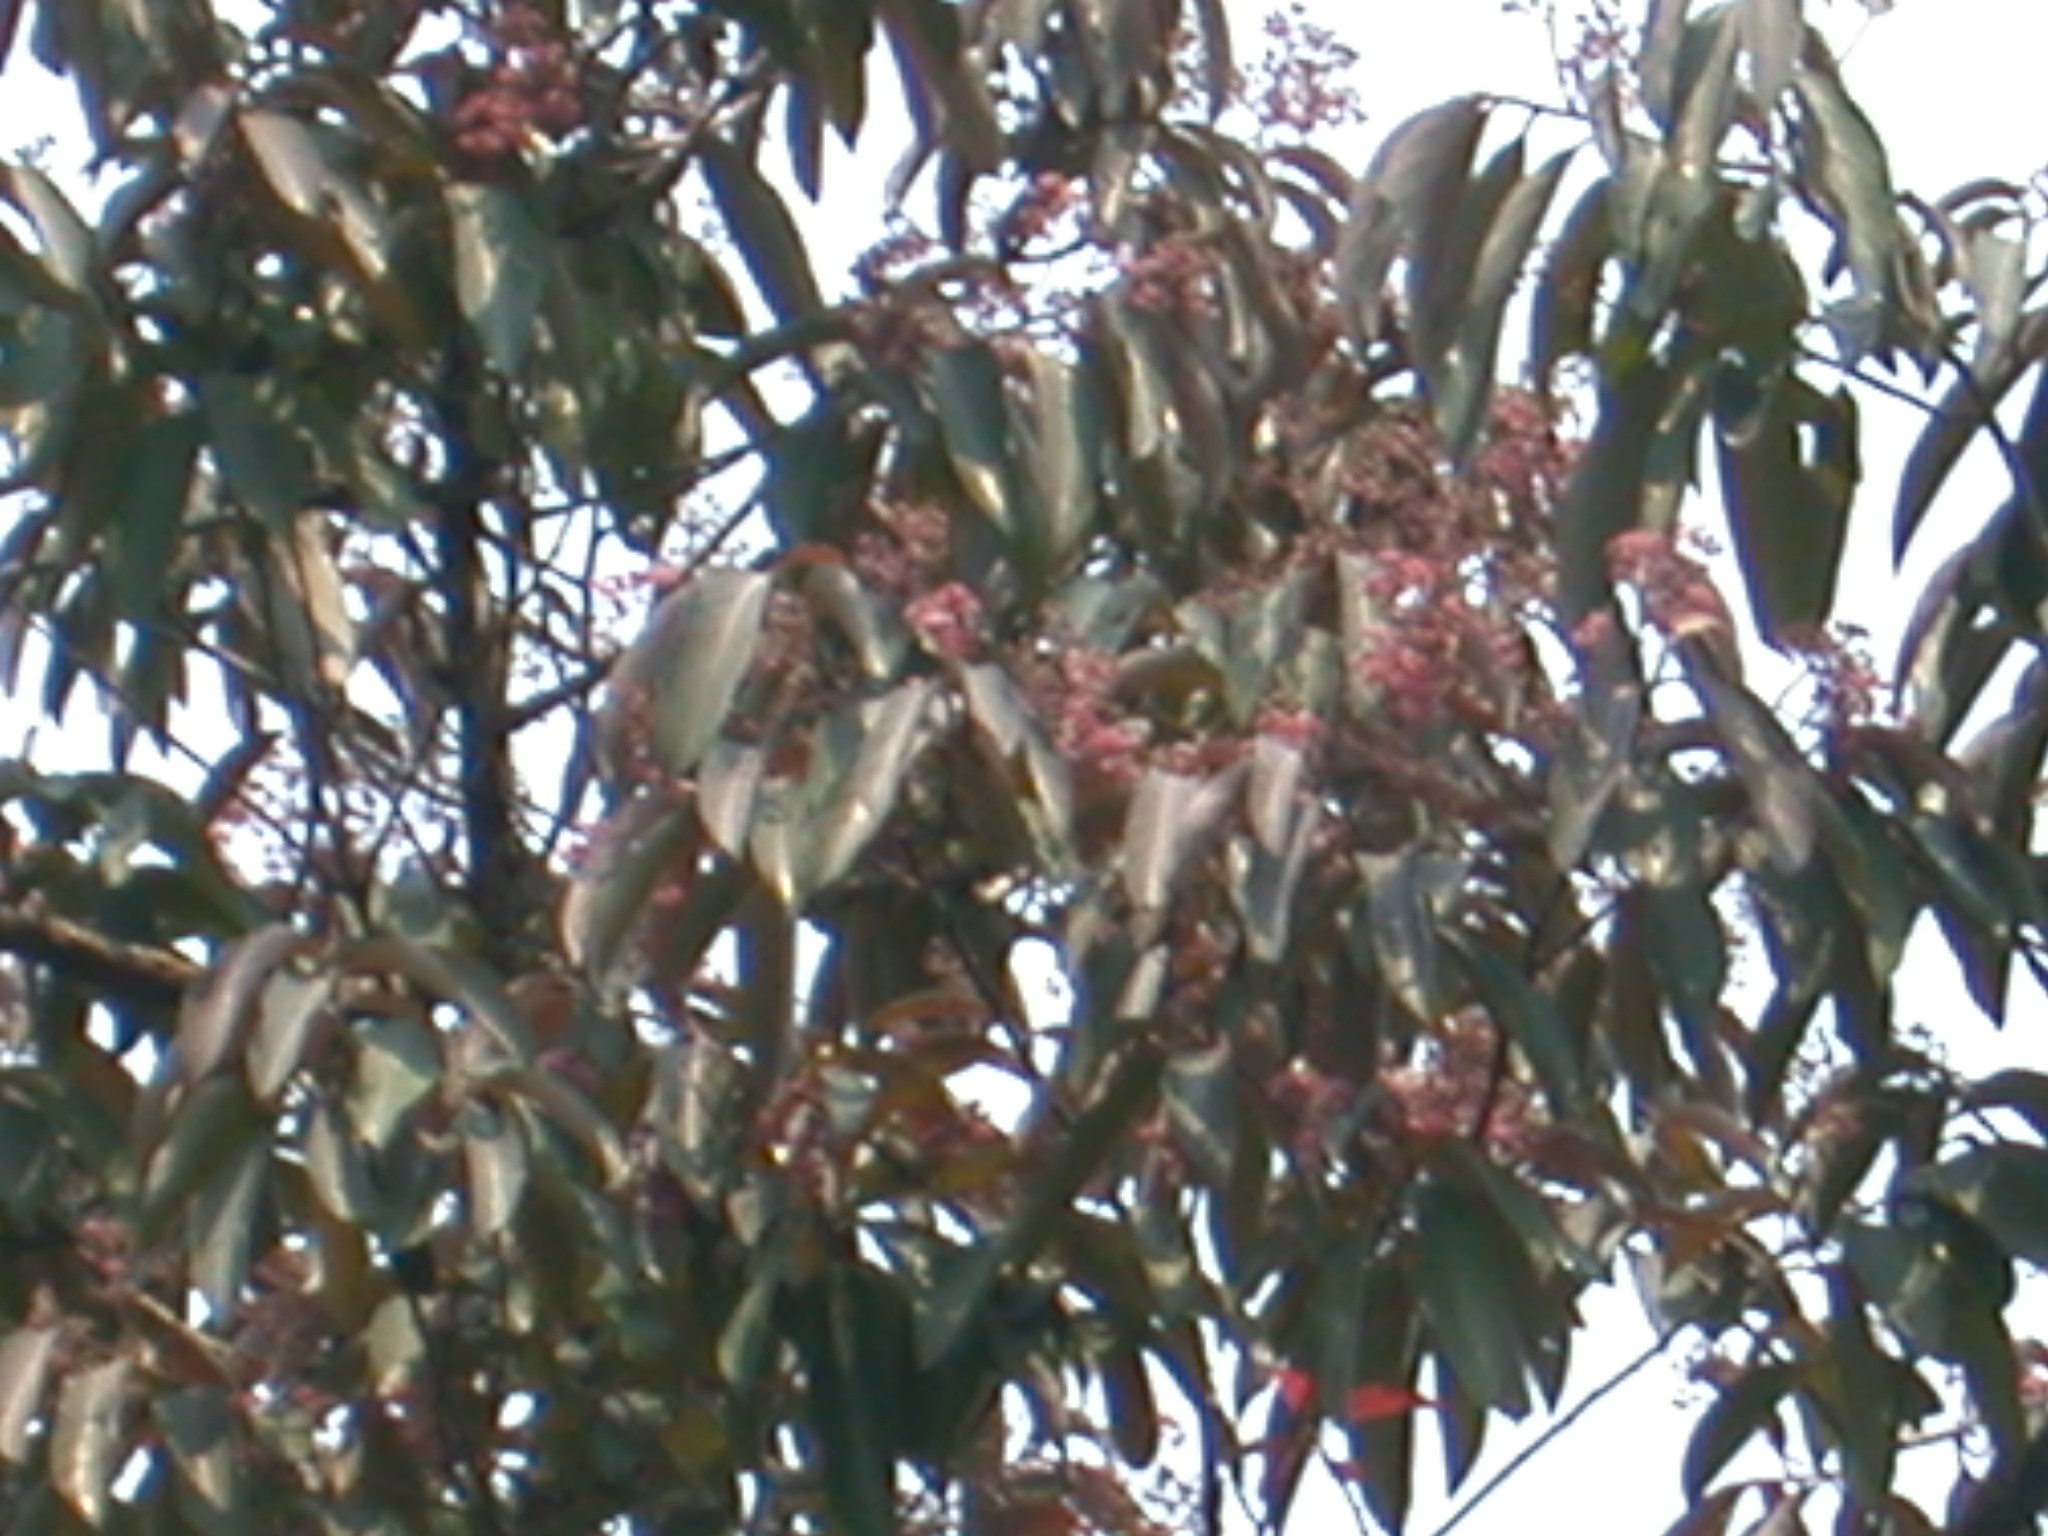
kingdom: Plantae
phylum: Tracheophyta
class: Magnoliopsida
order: Laurales
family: Lauraceae
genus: Damburneya
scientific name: Damburneya leucocome
